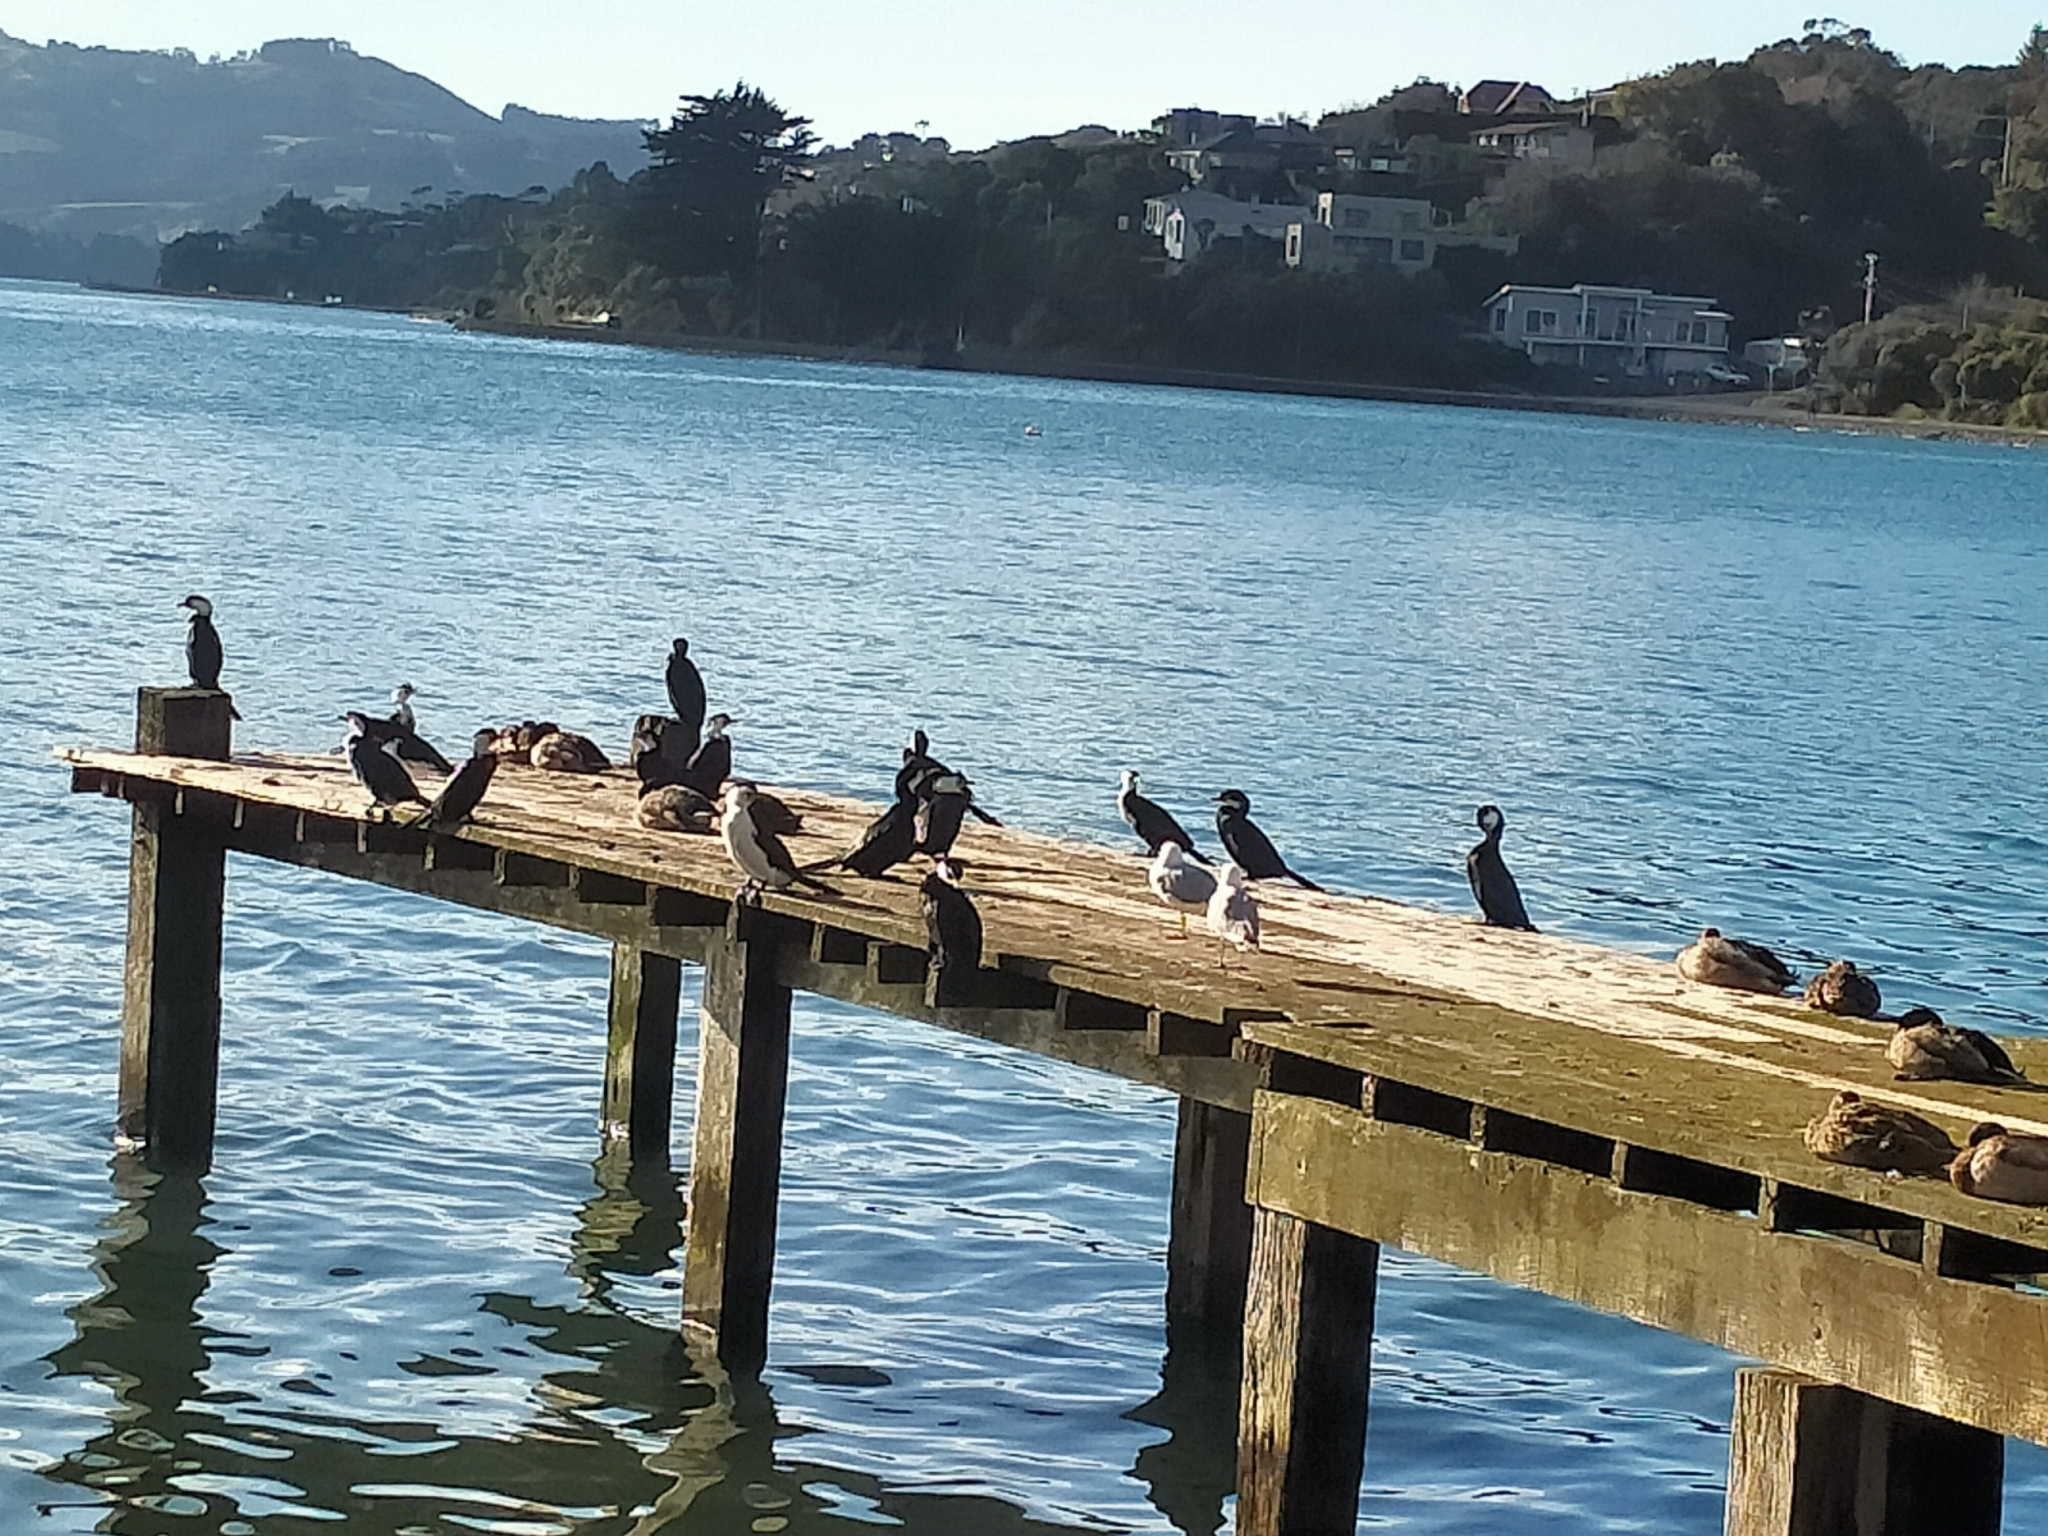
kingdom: Animalia
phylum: Chordata
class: Aves
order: Suliformes
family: Phalacrocoracidae
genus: Microcarbo
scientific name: Microcarbo melanoleucos
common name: Little pied cormorant
